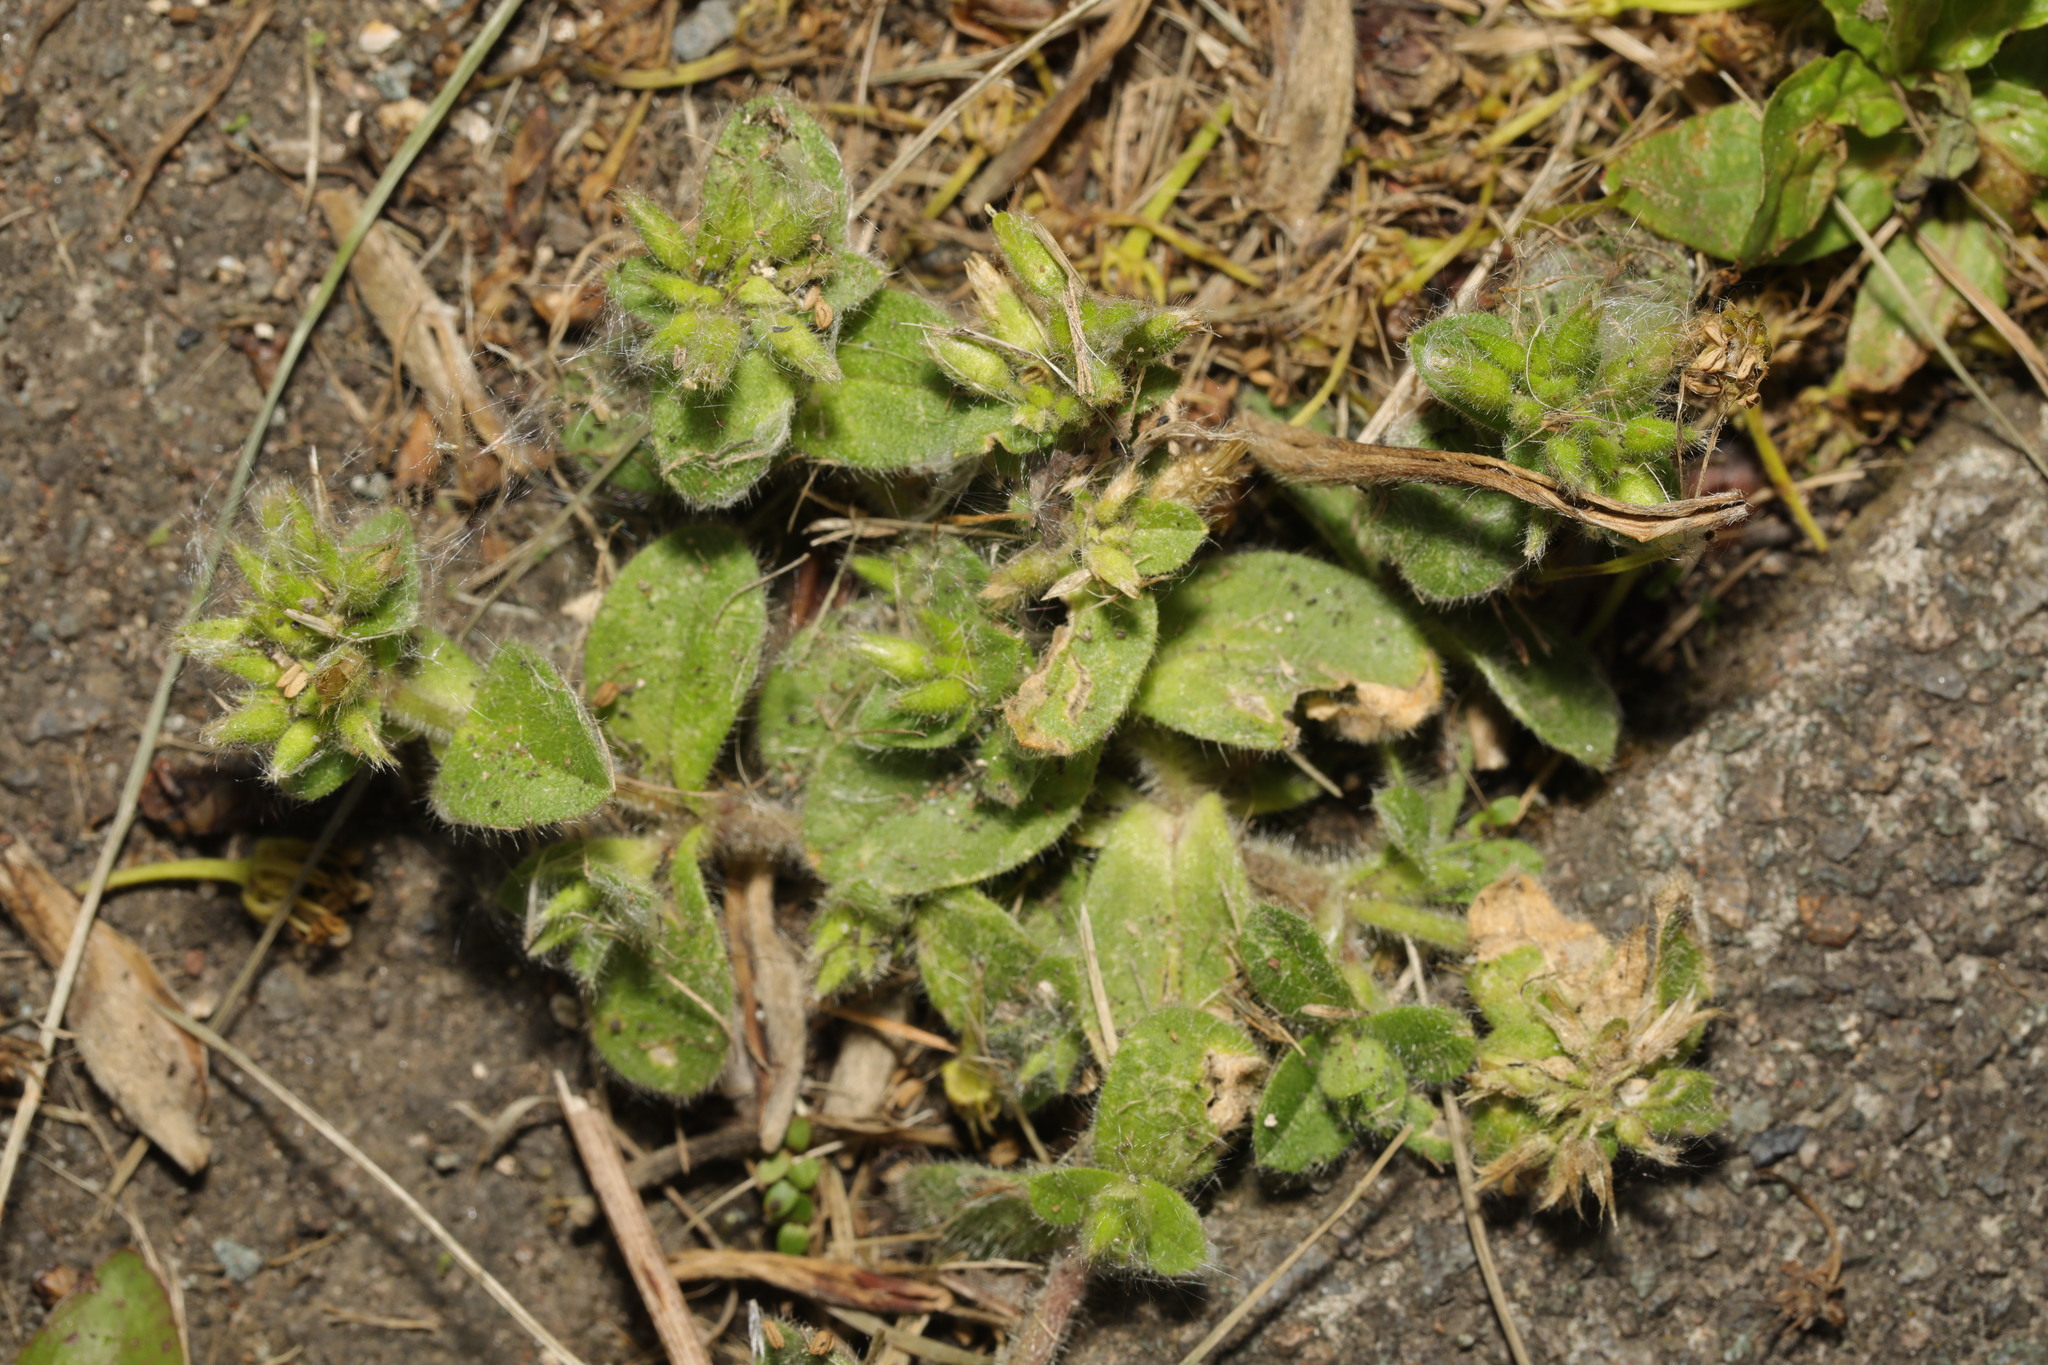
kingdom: Plantae
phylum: Tracheophyta
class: Magnoliopsida
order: Caryophyllales
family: Caryophyllaceae
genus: Cerastium
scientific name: Cerastium glomeratum
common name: Sticky chickweed
